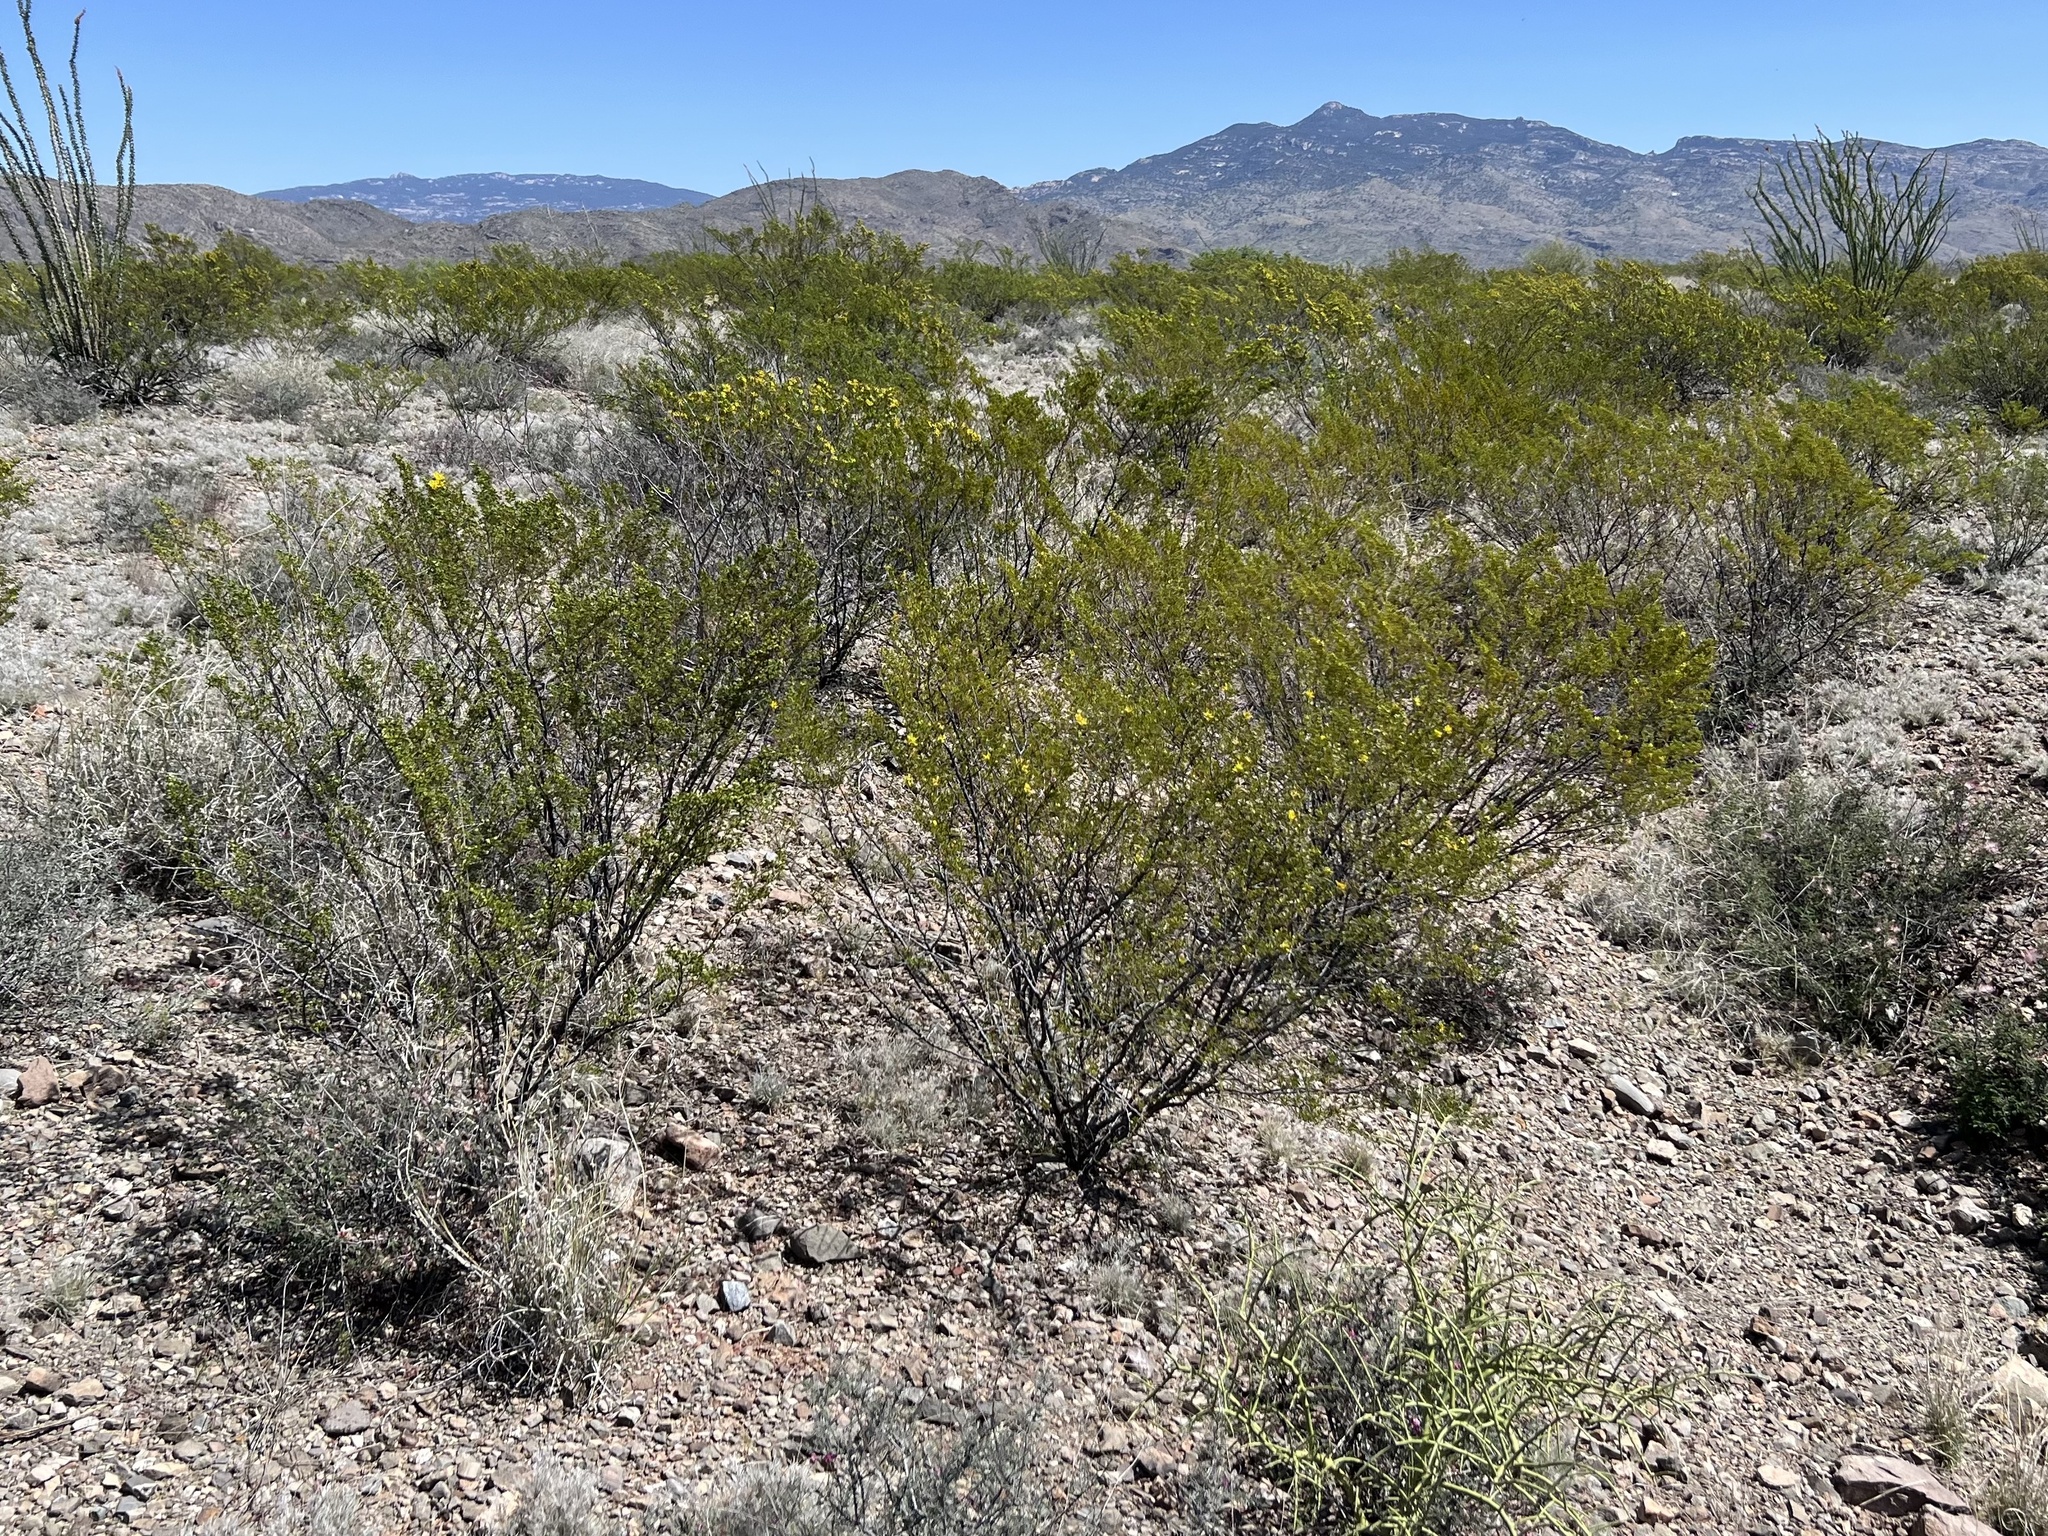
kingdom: Plantae
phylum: Tracheophyta
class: Magnoliopsida
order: Zygophyllales
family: Zygophyllaceae
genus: Larrea
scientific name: Larrea tridentata
